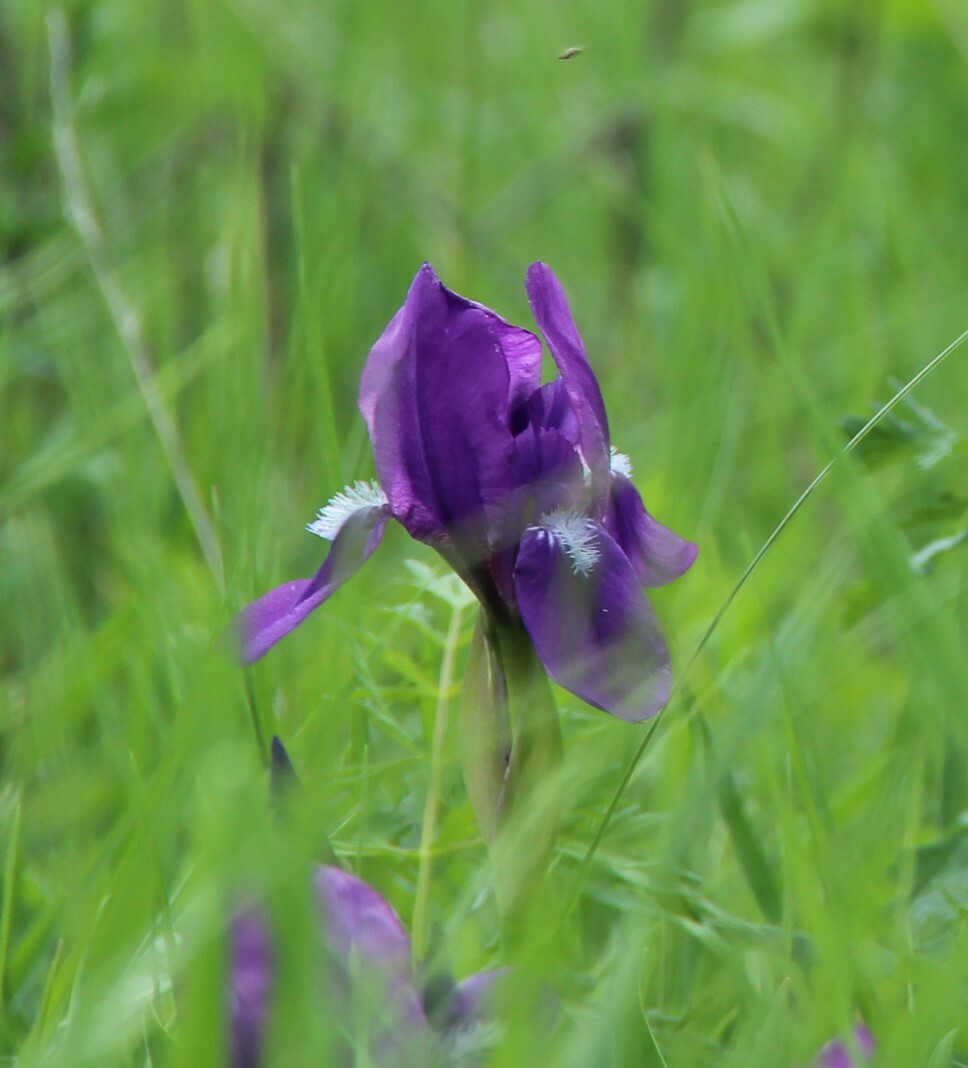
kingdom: Plantae
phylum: Tracheophyta
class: Liliopsida
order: Asparagales
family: Iridaceae
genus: Iris
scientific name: Iris aphylla
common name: Stool iris
